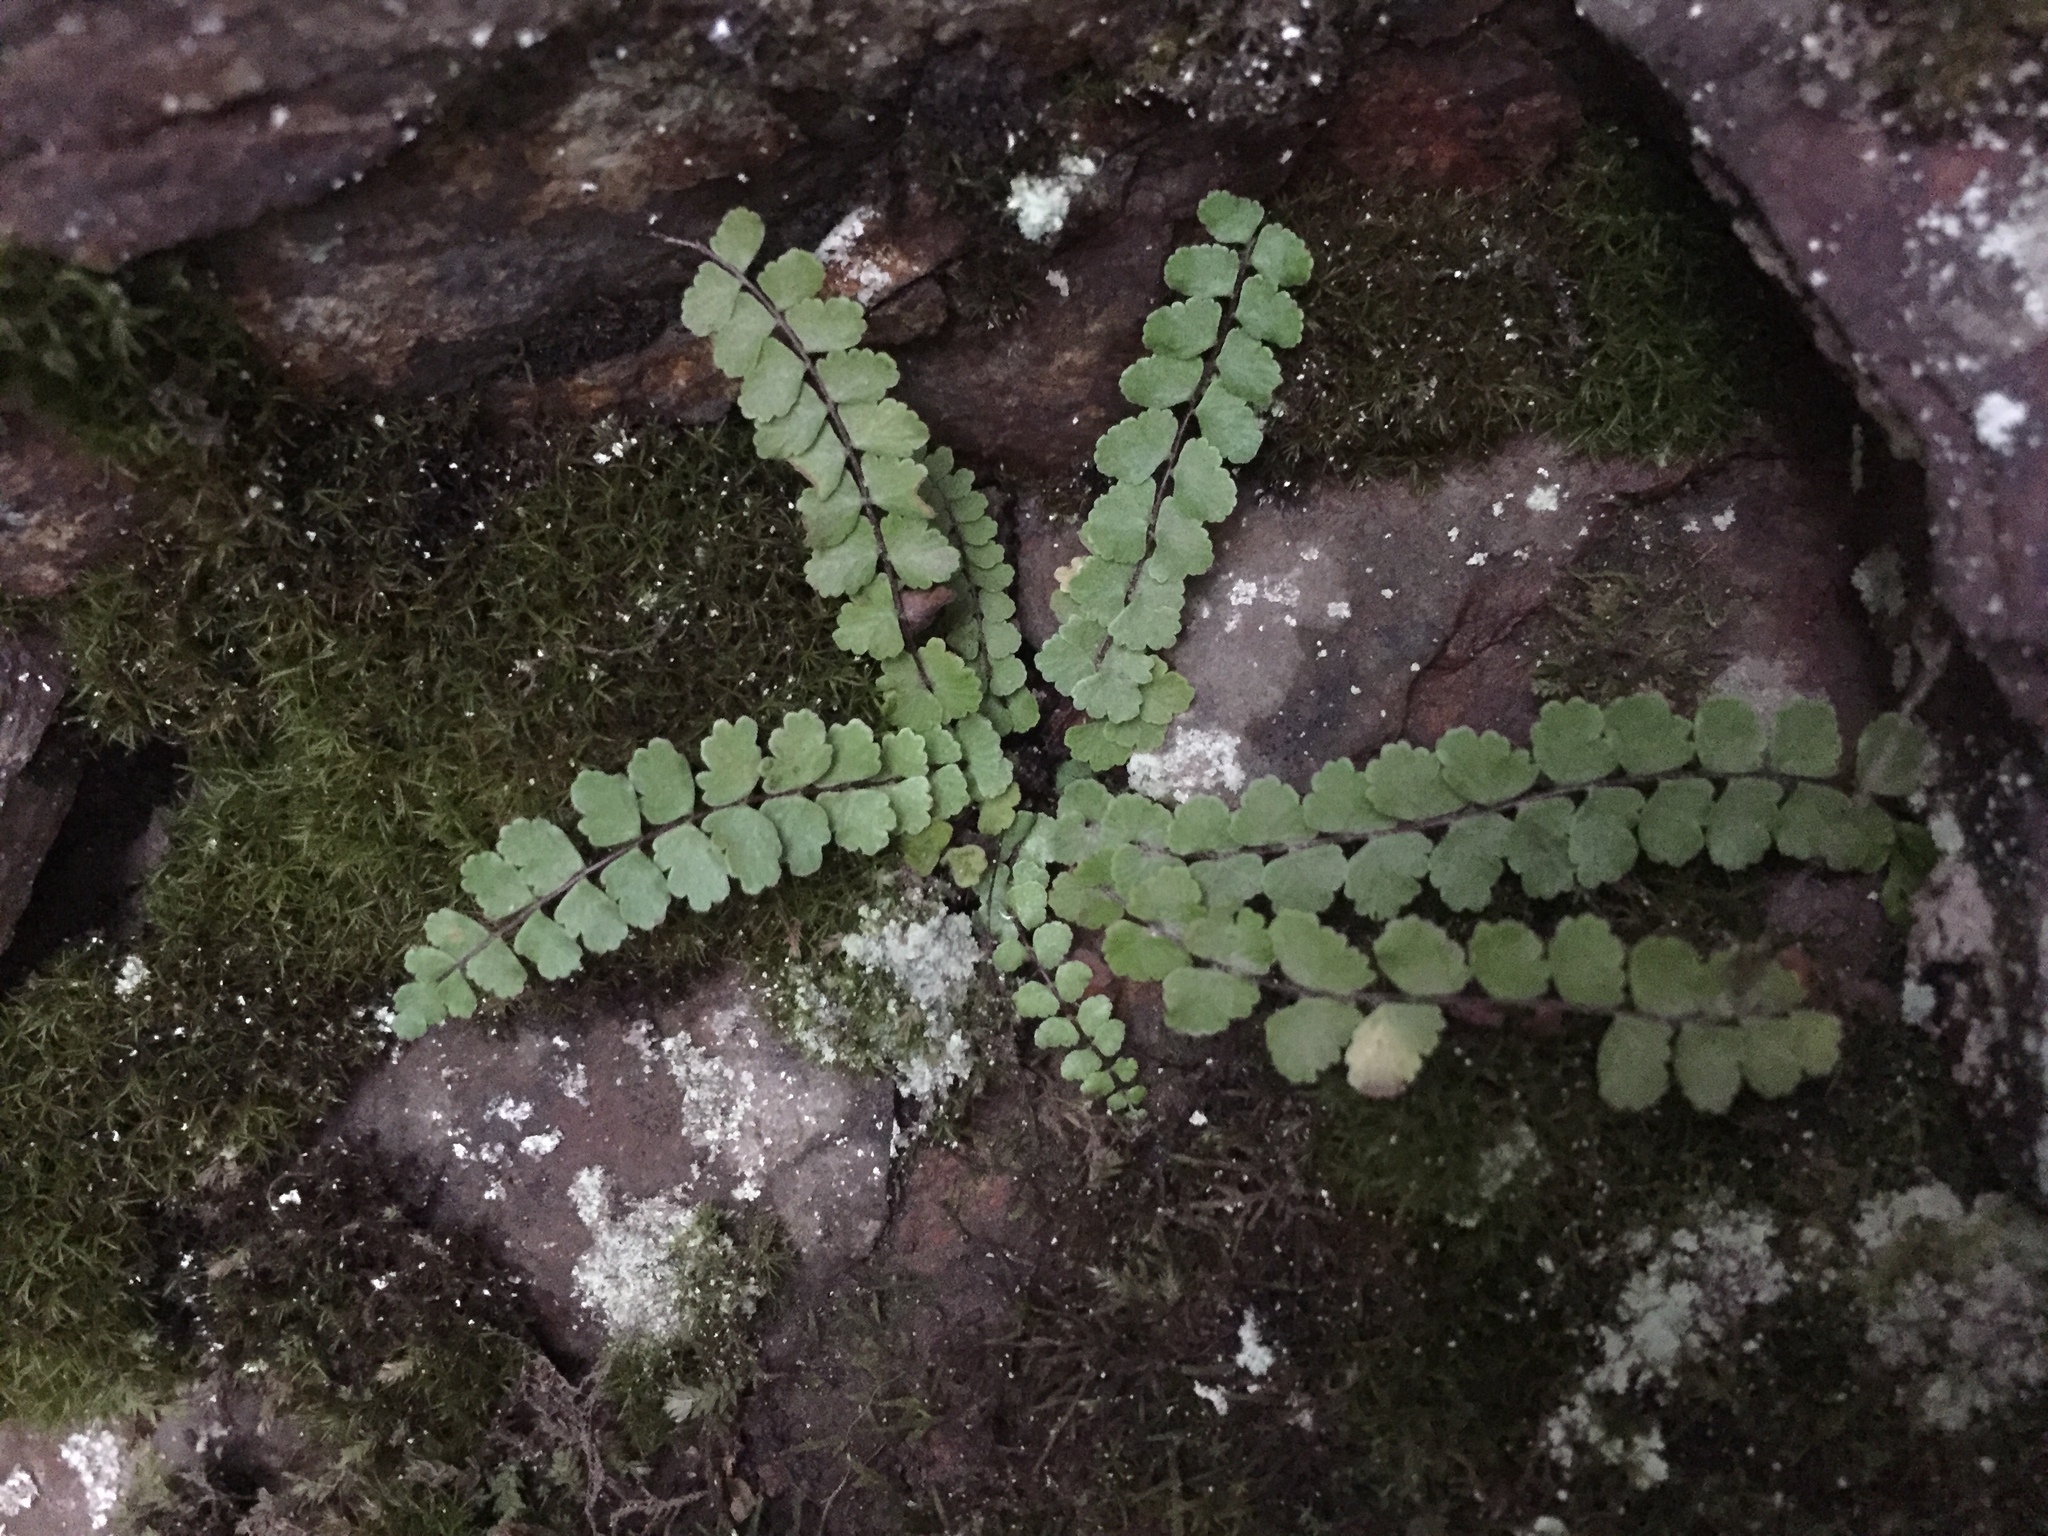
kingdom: Plantae
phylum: Tracheophyta
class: Polypodiopsida
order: Polypodiales
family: Aspleniaceae
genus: Asplenium
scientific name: Asplenium trichomanes
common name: Maidenhair spleenwort
